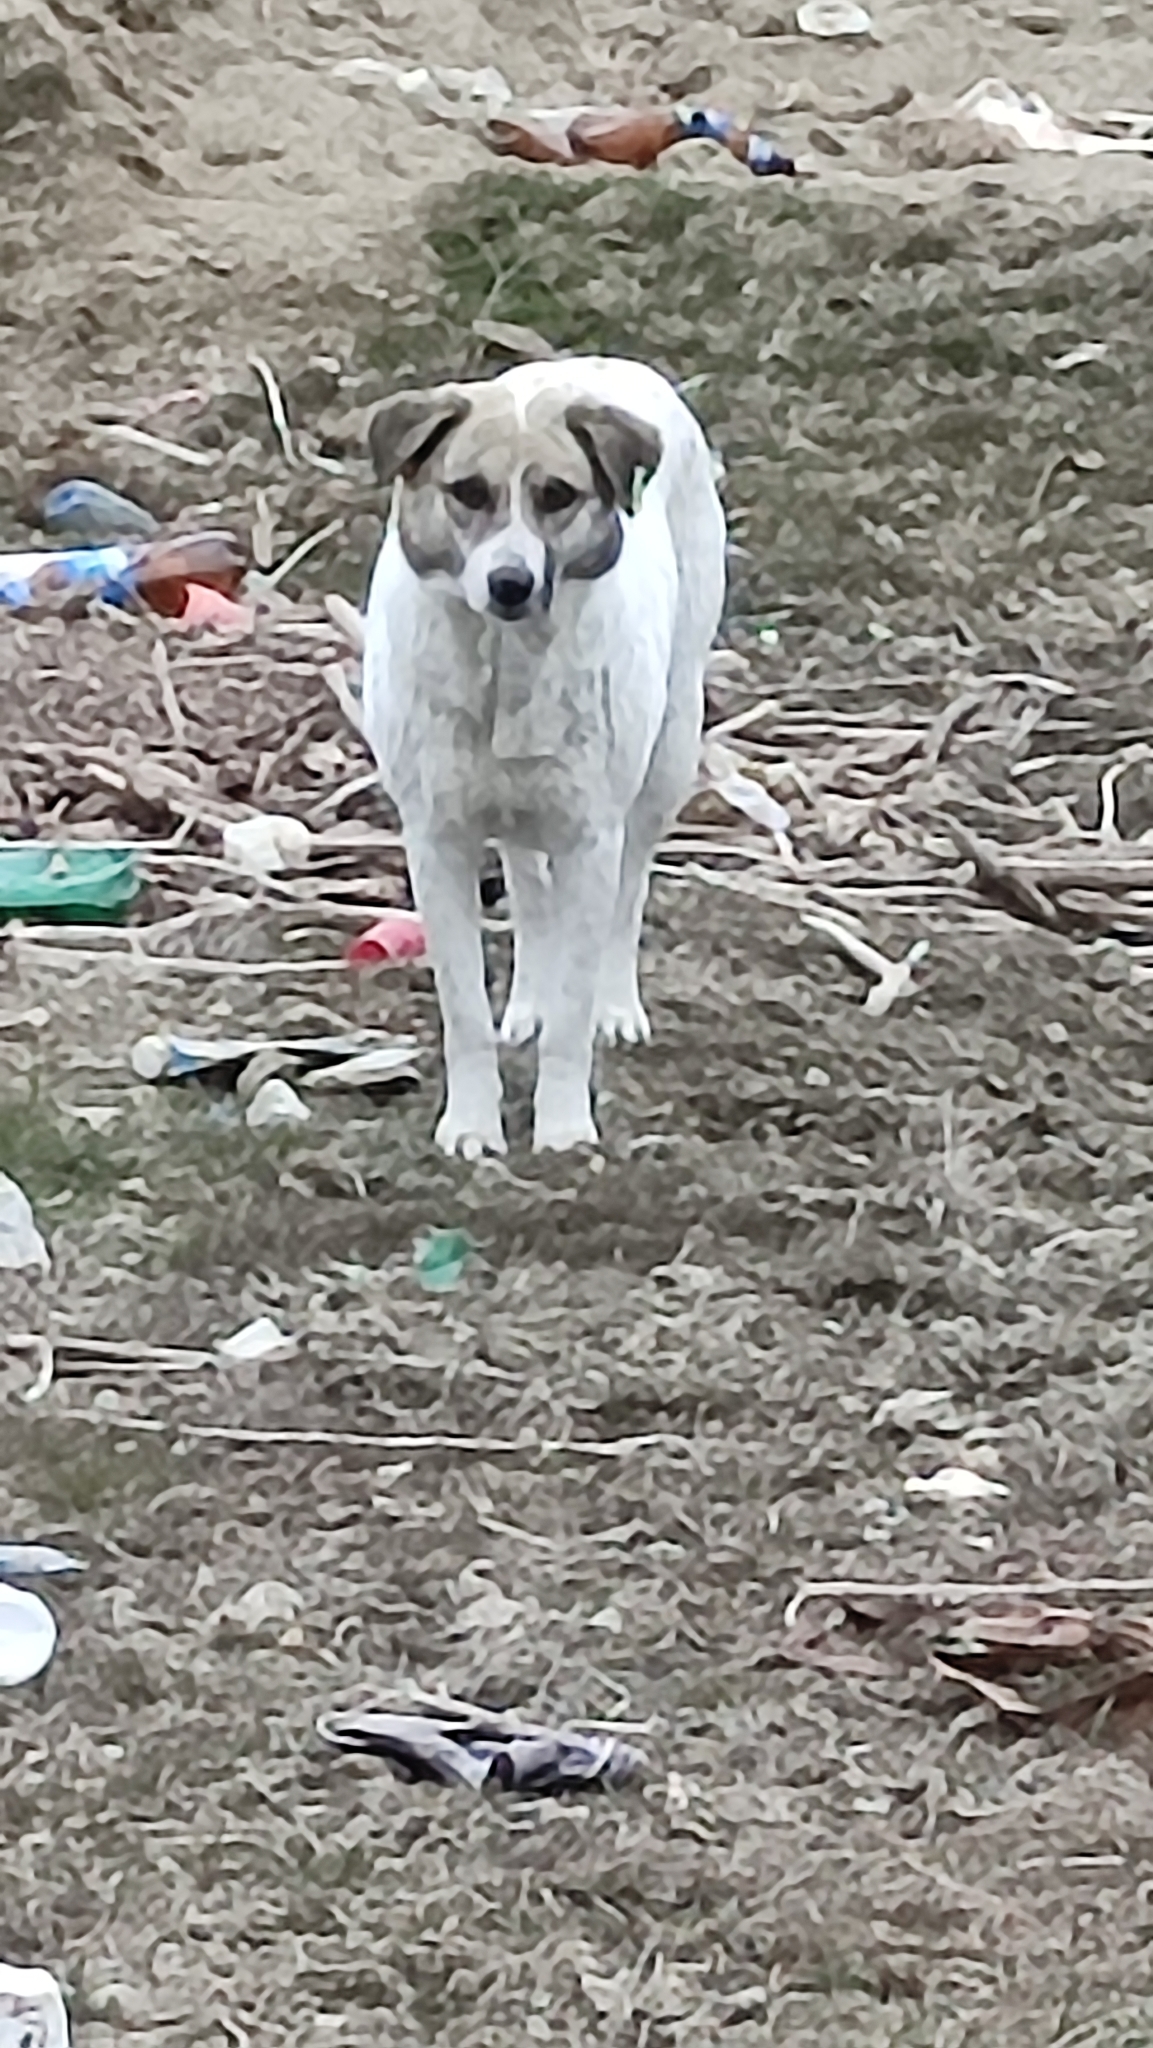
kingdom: Animalia
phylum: Chordata
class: Mammalia
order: Carnivora
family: Canidae
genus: Canis
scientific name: Canis lupus
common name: Gray wolf
